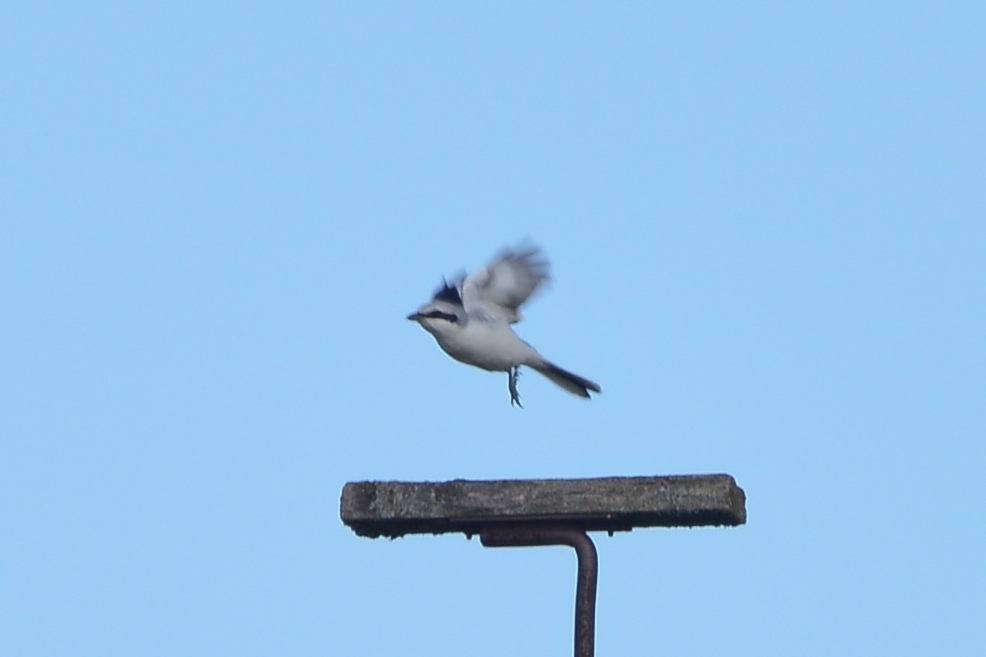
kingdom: Animalia
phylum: Chordata
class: Aves
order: Passeriformes
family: Laniidae
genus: Lanius
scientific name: Lanius excubitor
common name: Great grey shrike
